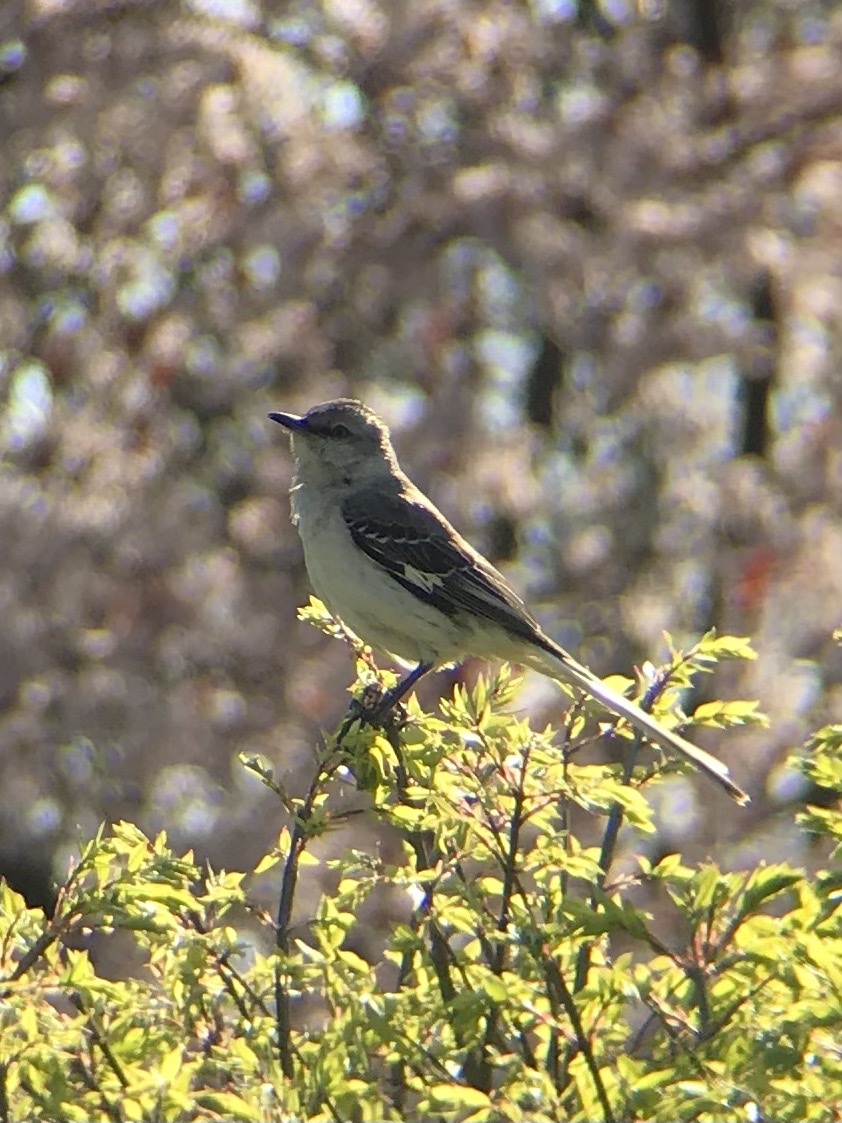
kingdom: Animalia
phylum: Chordata
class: Aves
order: Passeriformes
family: Mimidae
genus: Mimus
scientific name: Mimus polyglottos
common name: Northern mockingbird
